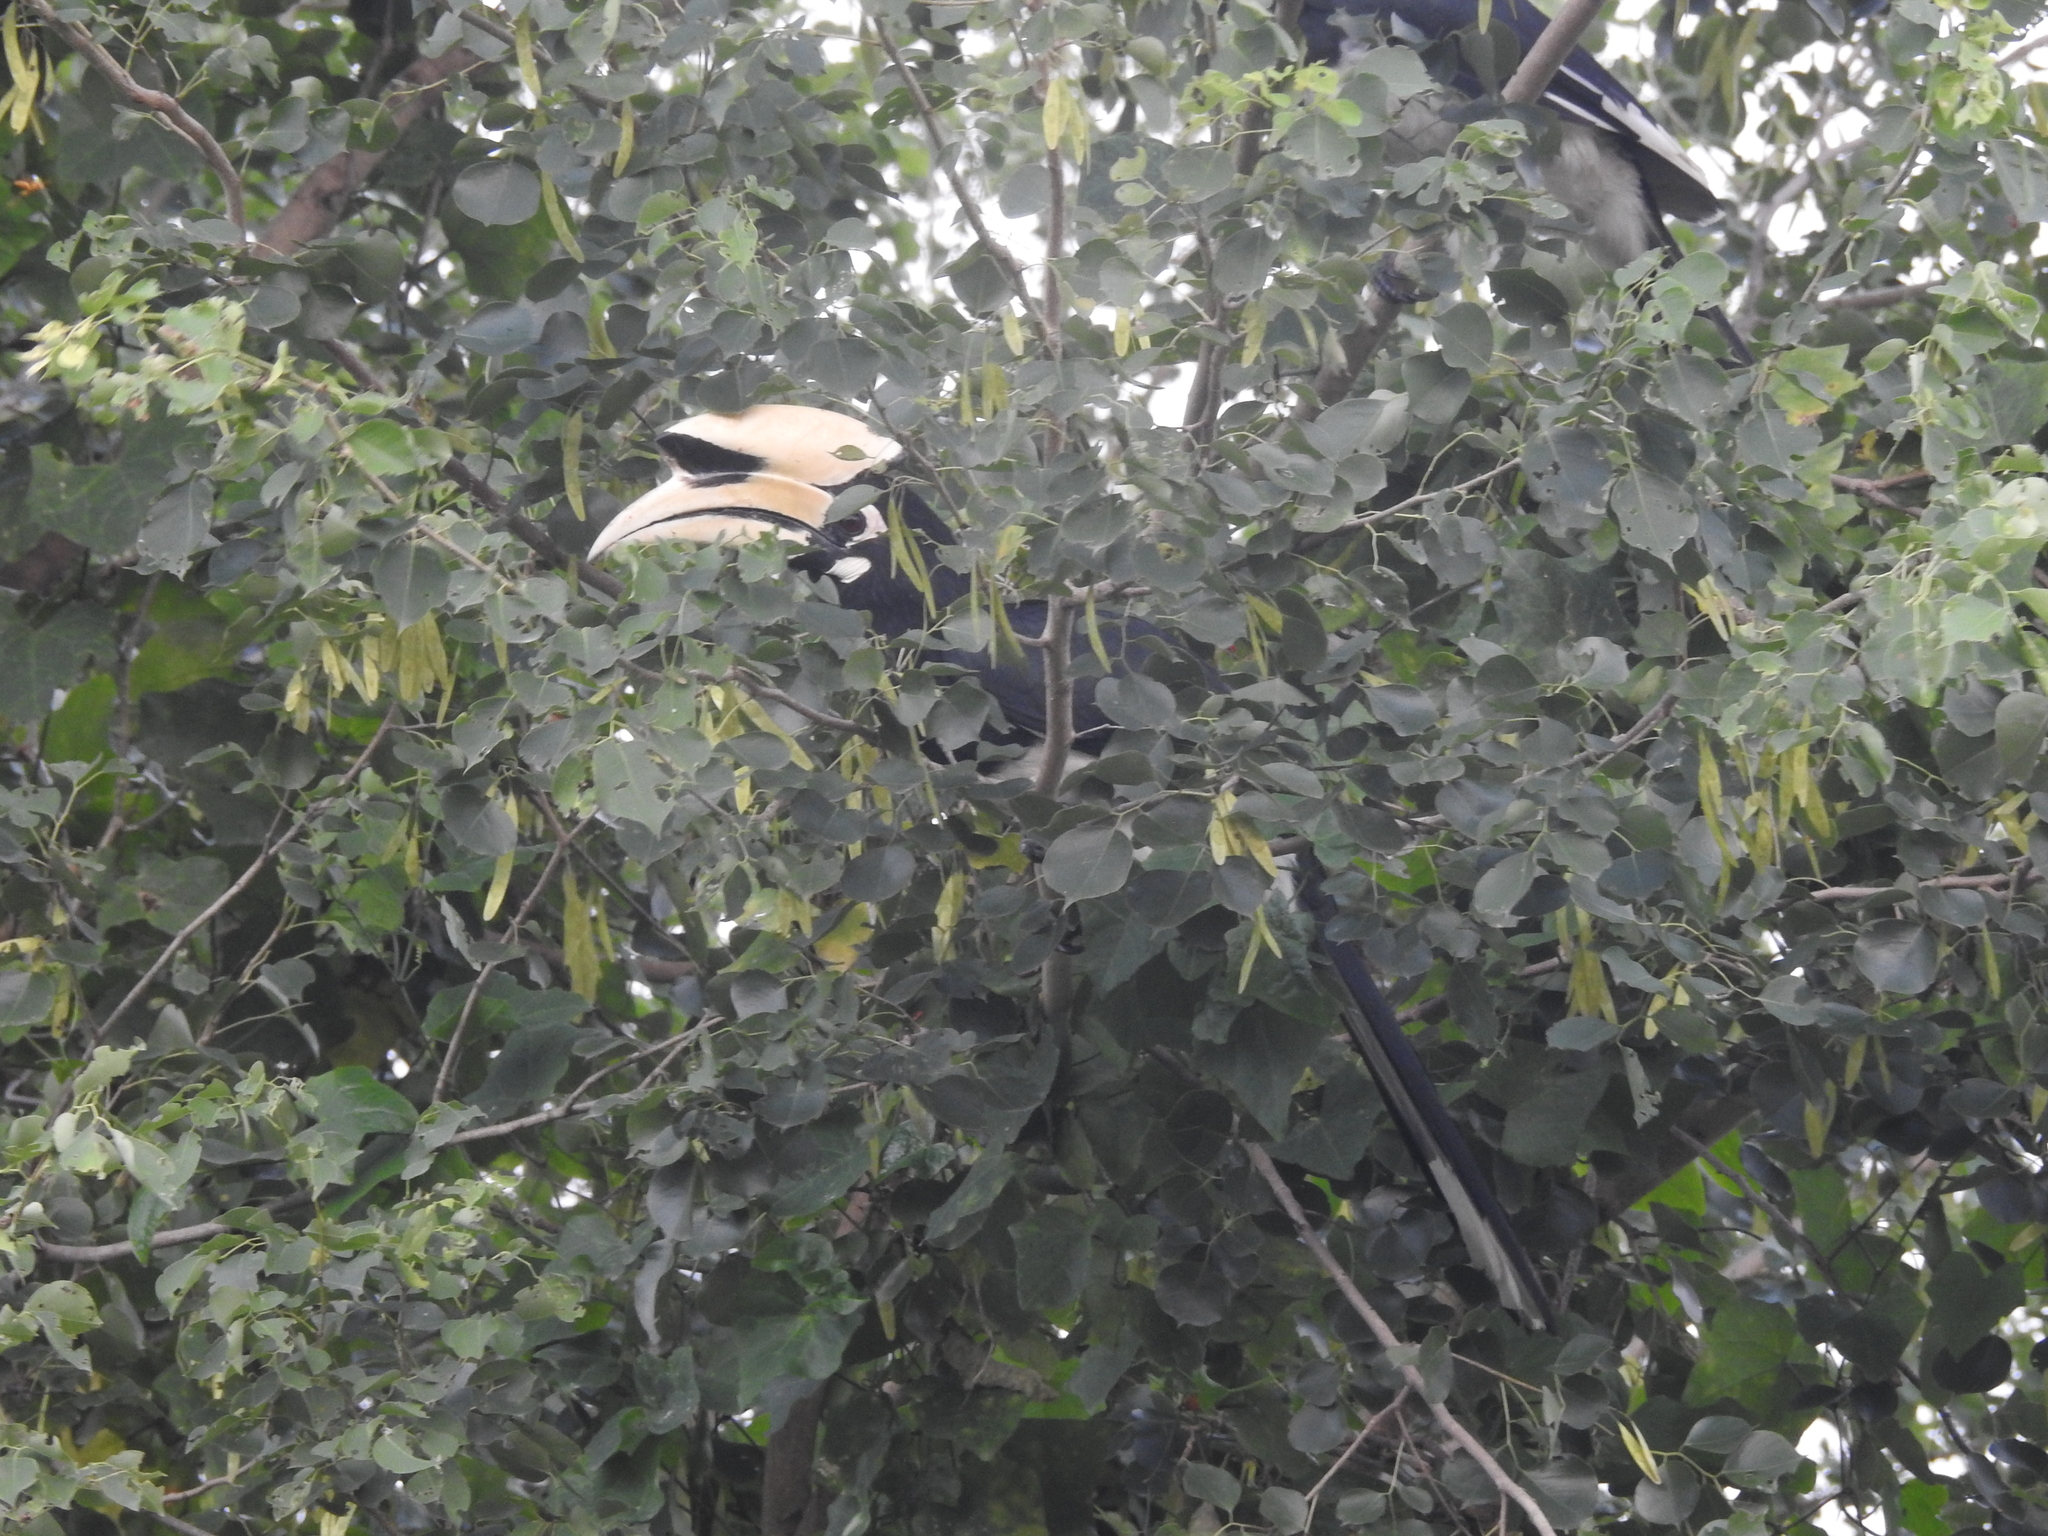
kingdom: Animalia
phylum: Chordata
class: Aves
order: Bucerotiformes
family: Bucerotidae
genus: Anthracoceros
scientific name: Anthracoceros albirostris
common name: Oriental pied-hornbill
